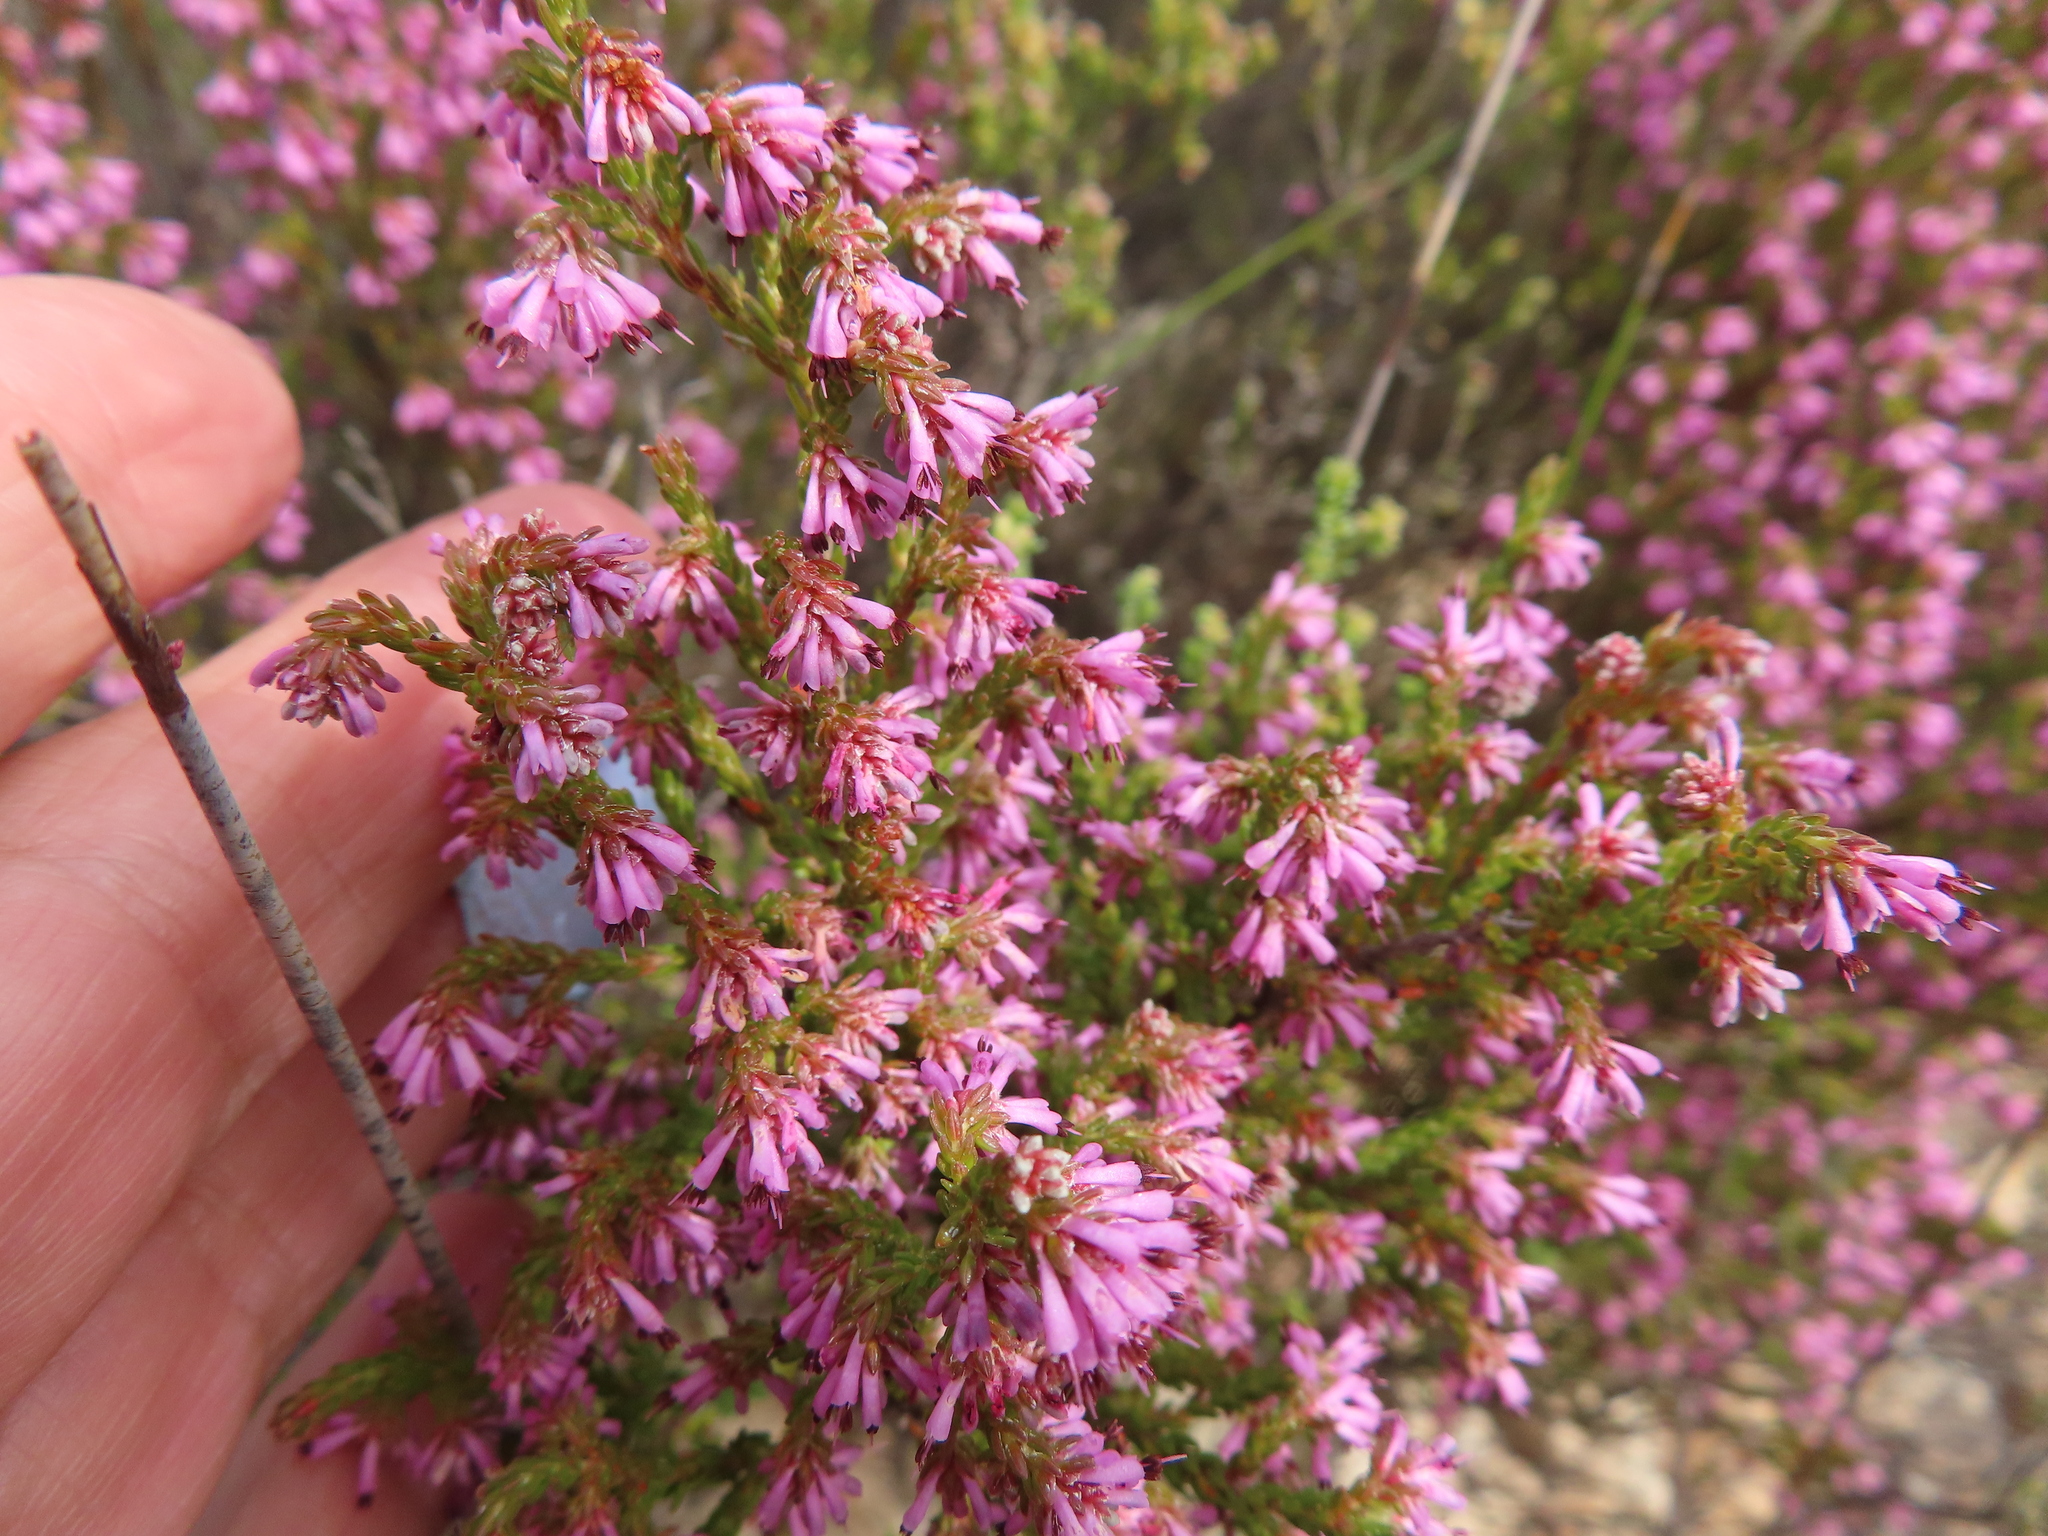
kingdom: Plantae
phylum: Tracheophyta
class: Magnoliopsida
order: Ericales
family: Ericaceae
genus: Erica
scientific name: Erica labialis
